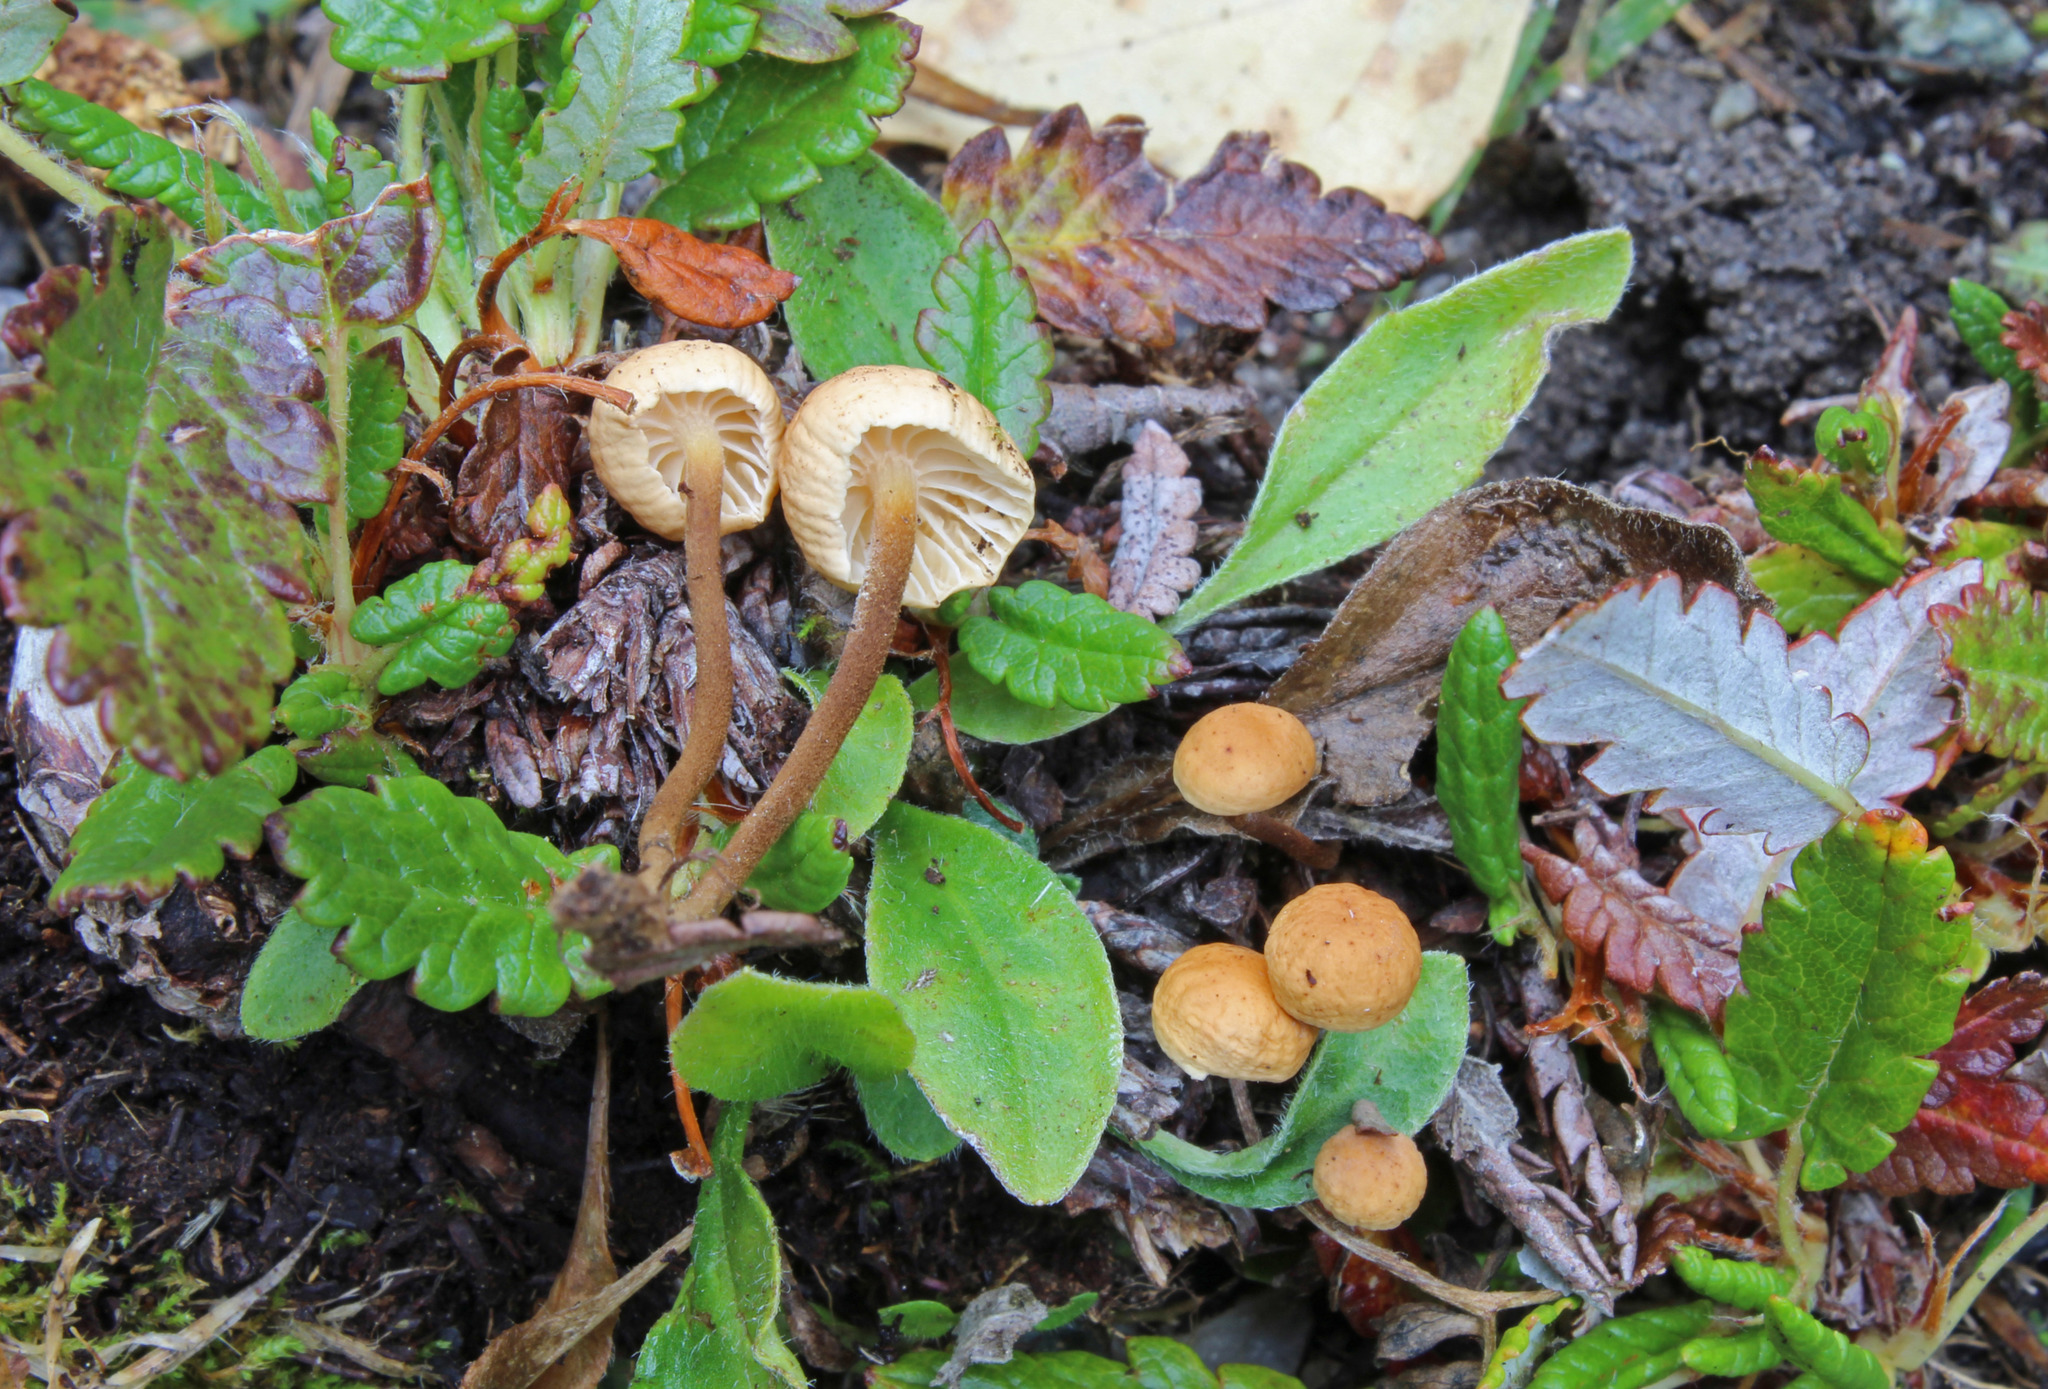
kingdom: Fungi
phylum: Basidiomycota
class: Agaricomycetes
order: Agaricales
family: Physalacriaceae
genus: Rhizomarasmius
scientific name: Rhizomarasmius epidryas
